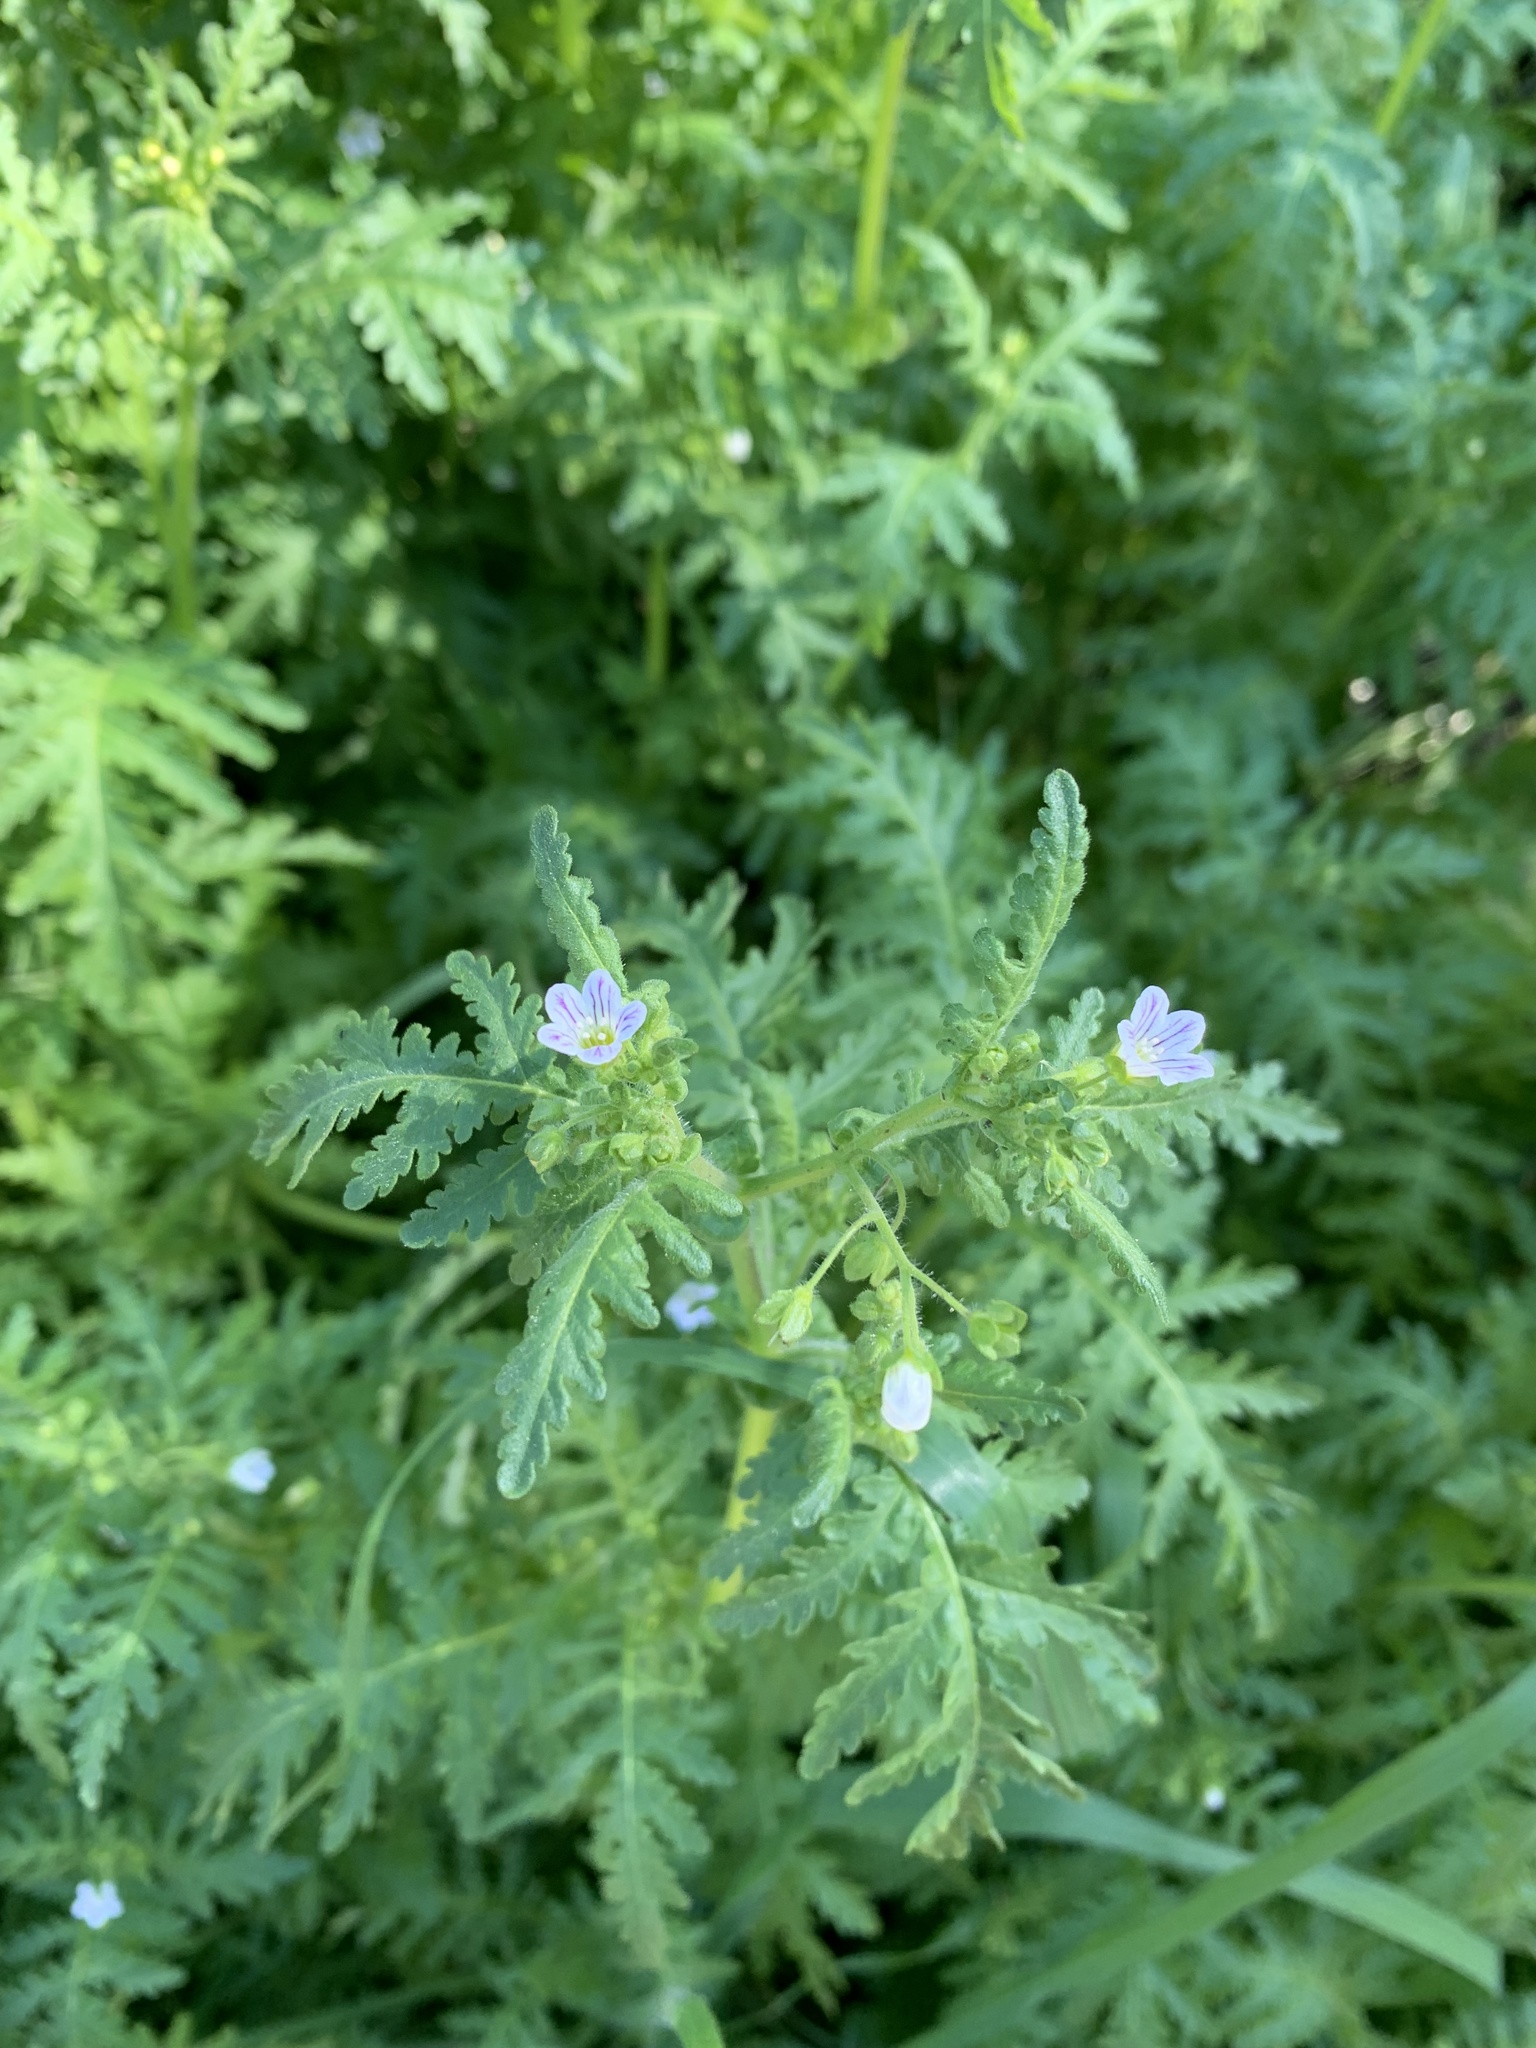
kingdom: Plantae
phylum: Tracheophyta
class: Magnoliopsida
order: Boraginales
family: Hydrophyllaceae
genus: Eucrypta
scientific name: Eucrypta chrysanthemifolia
